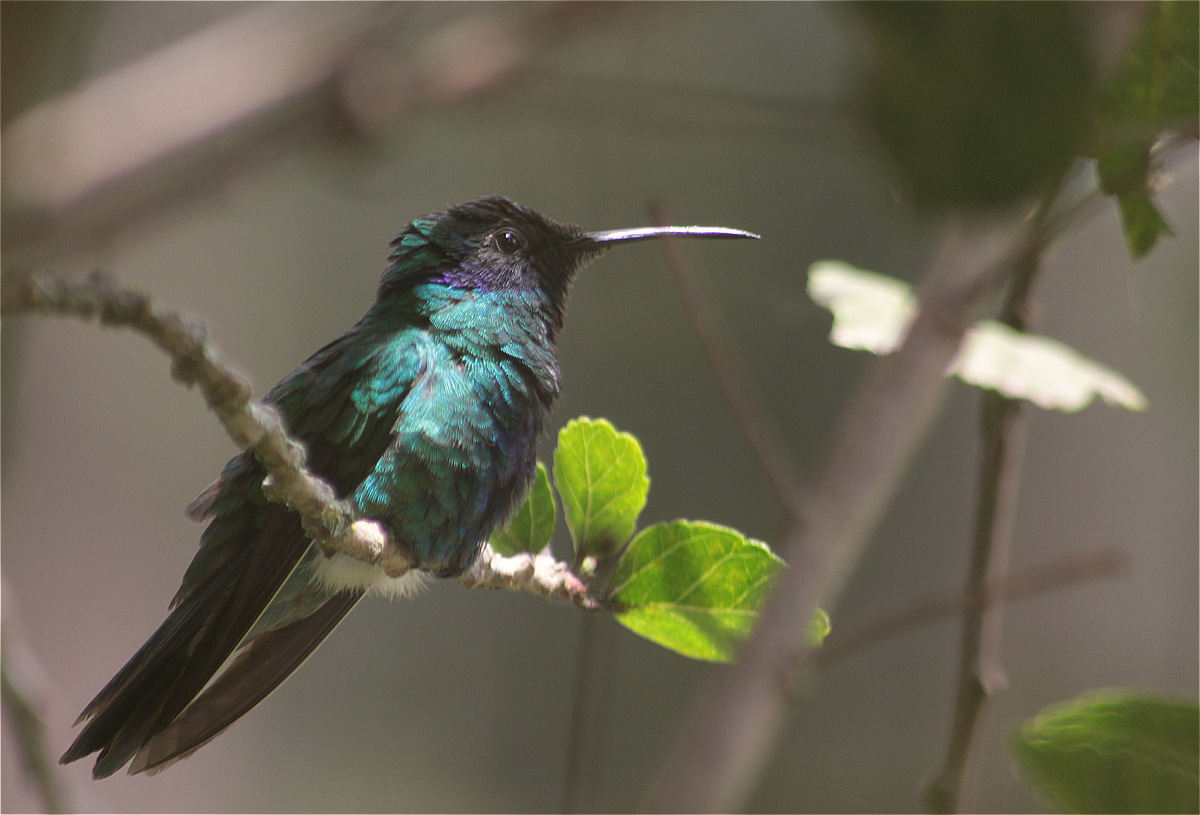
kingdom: Animalia
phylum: Chordata
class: Aves
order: Apodiformes
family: Trochilidae
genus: Colibri
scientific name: Colibri coruscans
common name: Sparkling violetear
